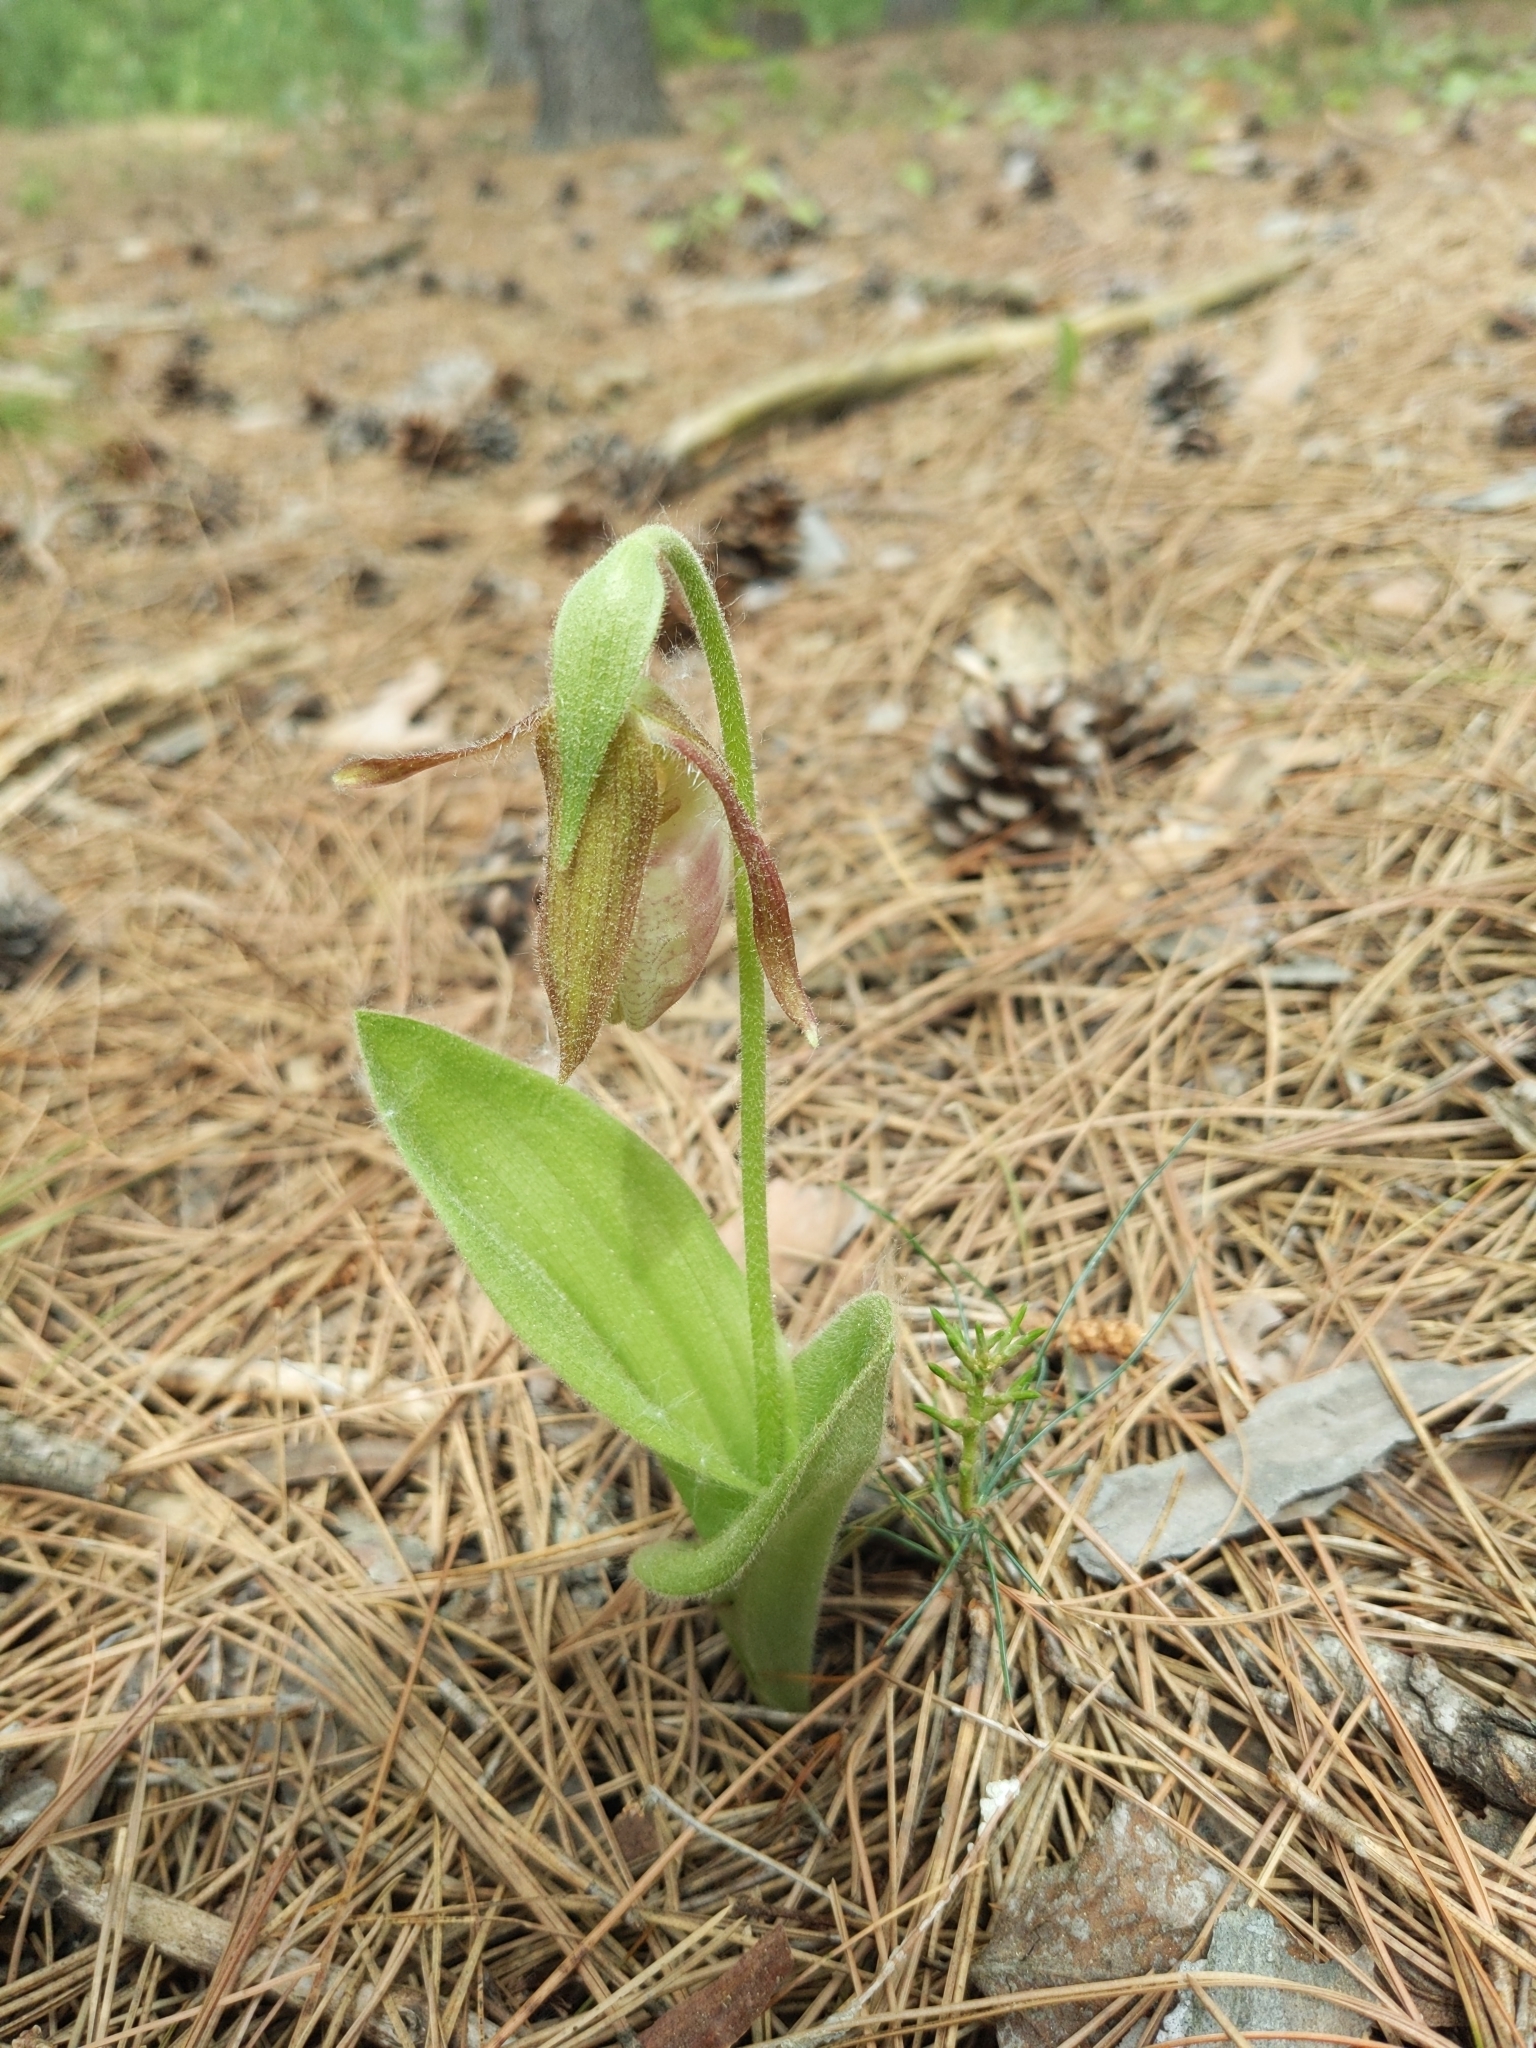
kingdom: Plantae
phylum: Tracheophyta
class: Liliopsida
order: Asparagales
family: Orchidaceae
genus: Cypripedium
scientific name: Cypripedium acaule
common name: Pink lady's-slipper
